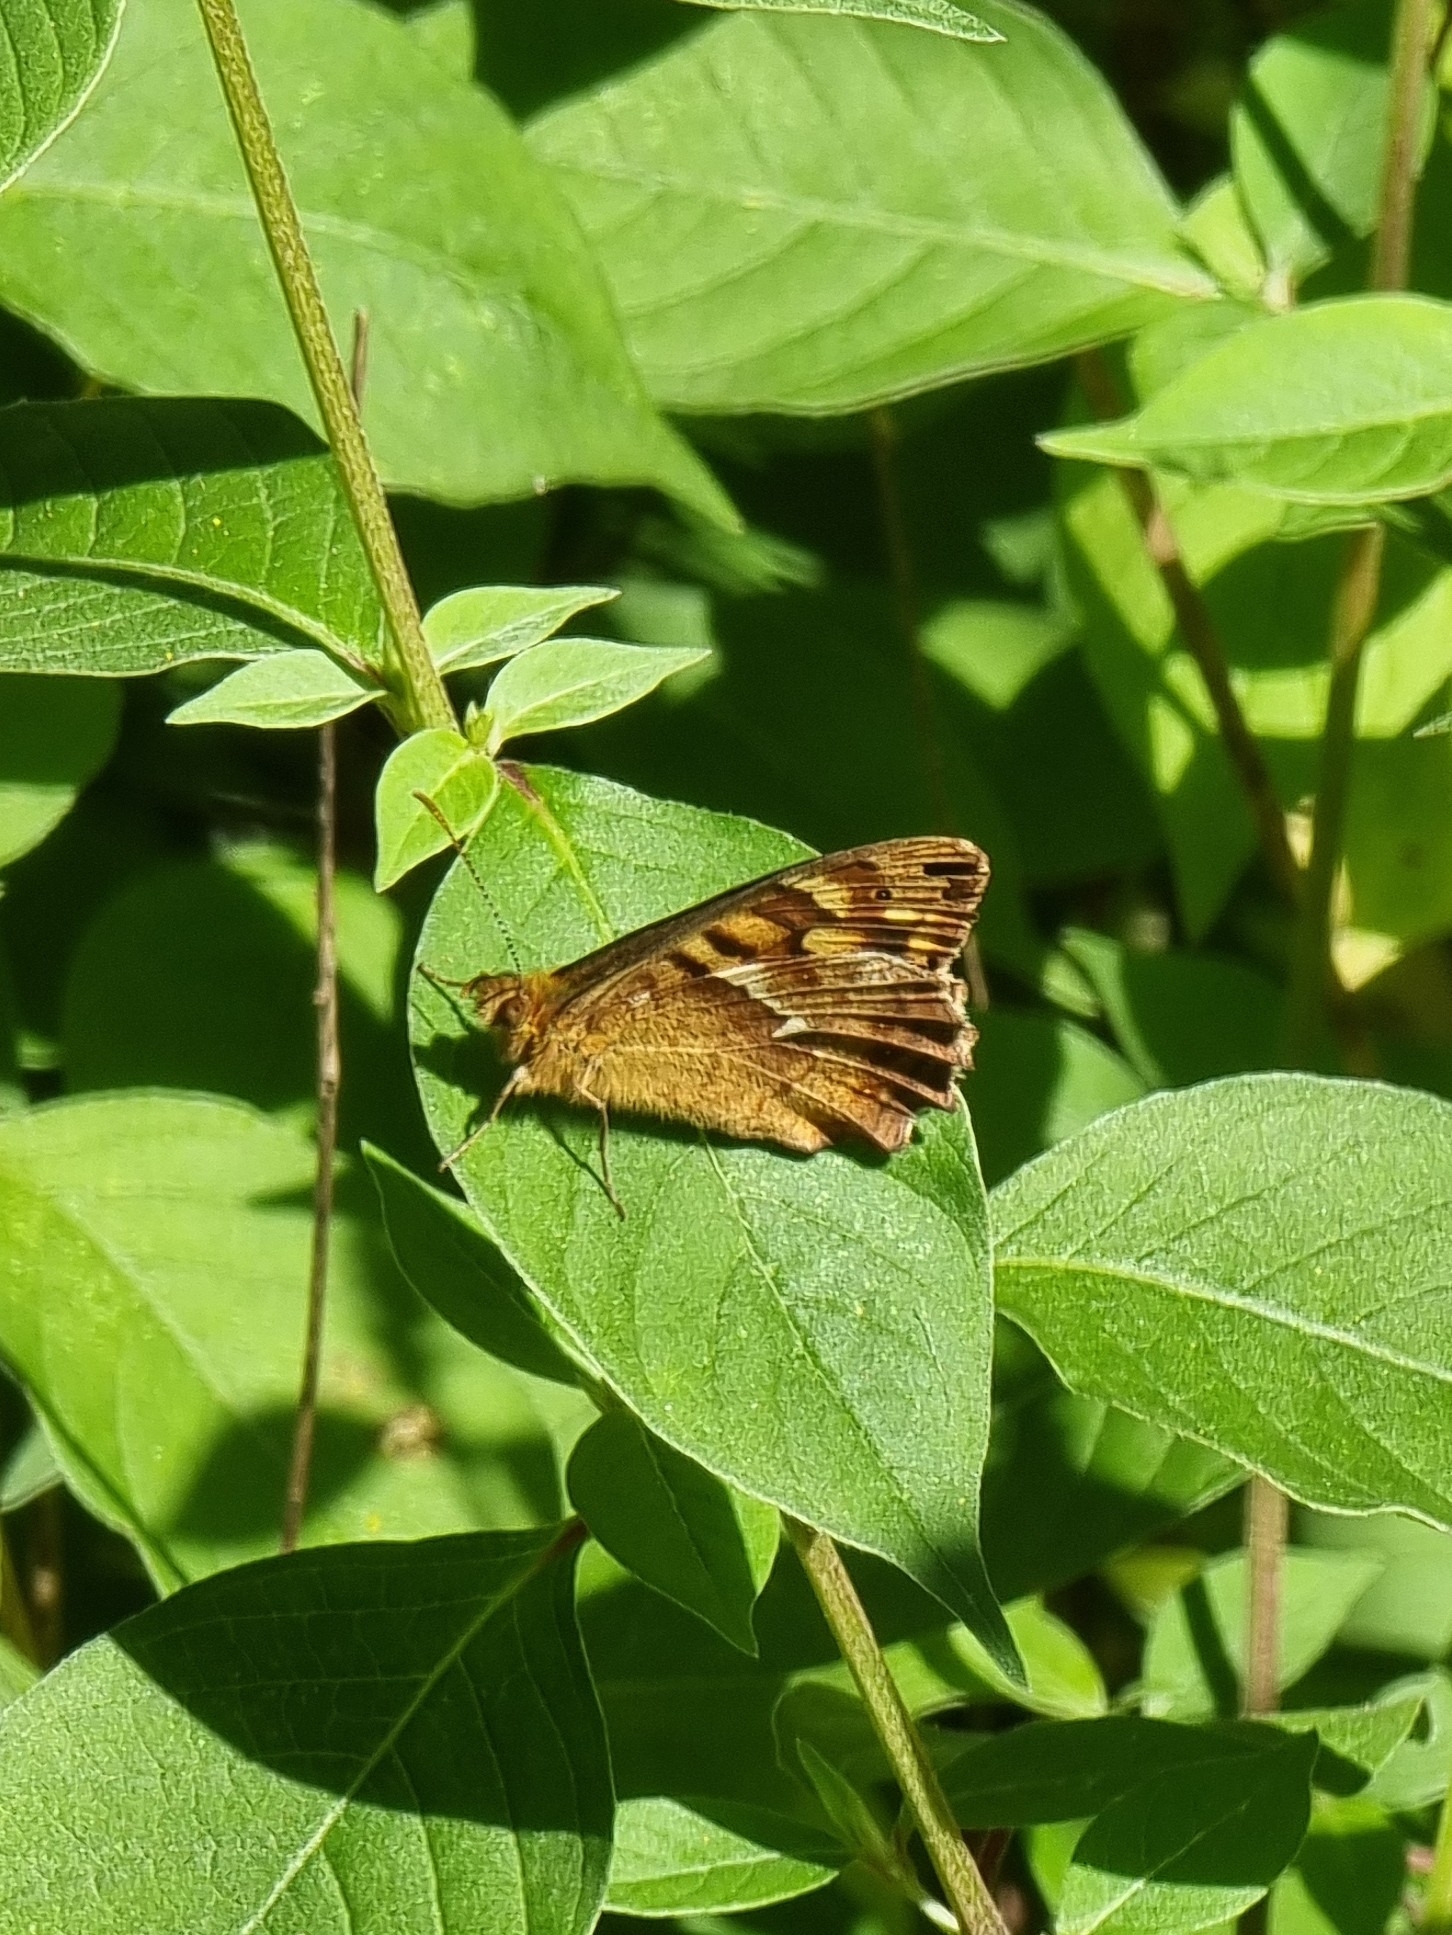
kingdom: Animalia
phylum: Arthropoda
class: Insecta
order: Lepidoptera
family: Nymphalidae
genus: Pararge
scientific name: Pararge aegeria
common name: Speckled wood
